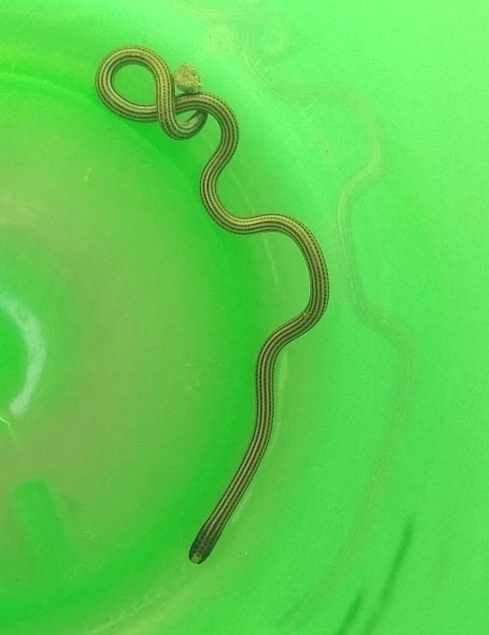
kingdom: Animalia
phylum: Chordata
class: Squamata
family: Leptotyphlopidae
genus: Epictia
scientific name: Epictia albipuncta
